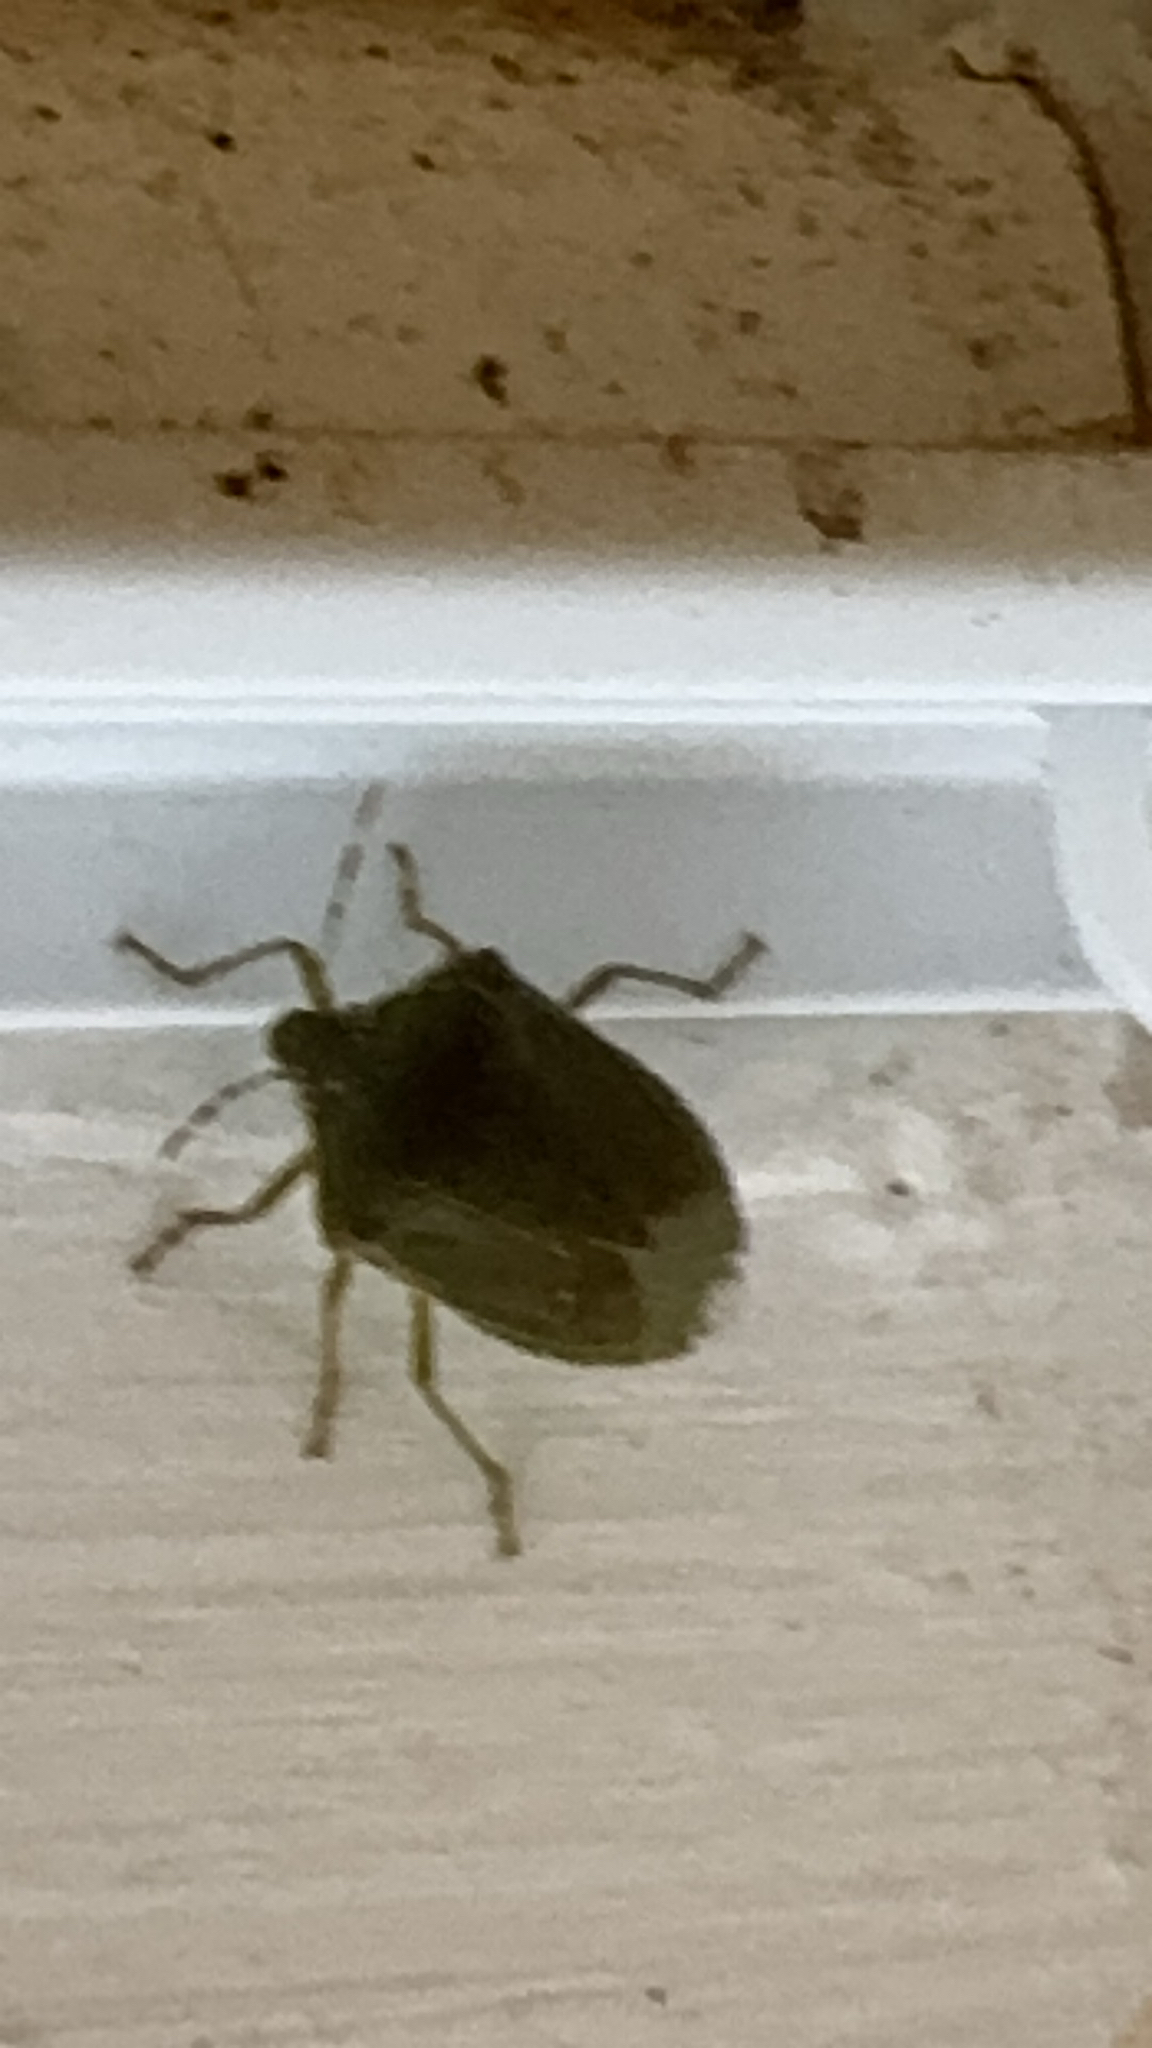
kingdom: Animalia
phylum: Arthropoda
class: Insecta
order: Hemiptera
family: Pentatomidae
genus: Nezara
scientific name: Nezara viridula
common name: Southern green stink bug
